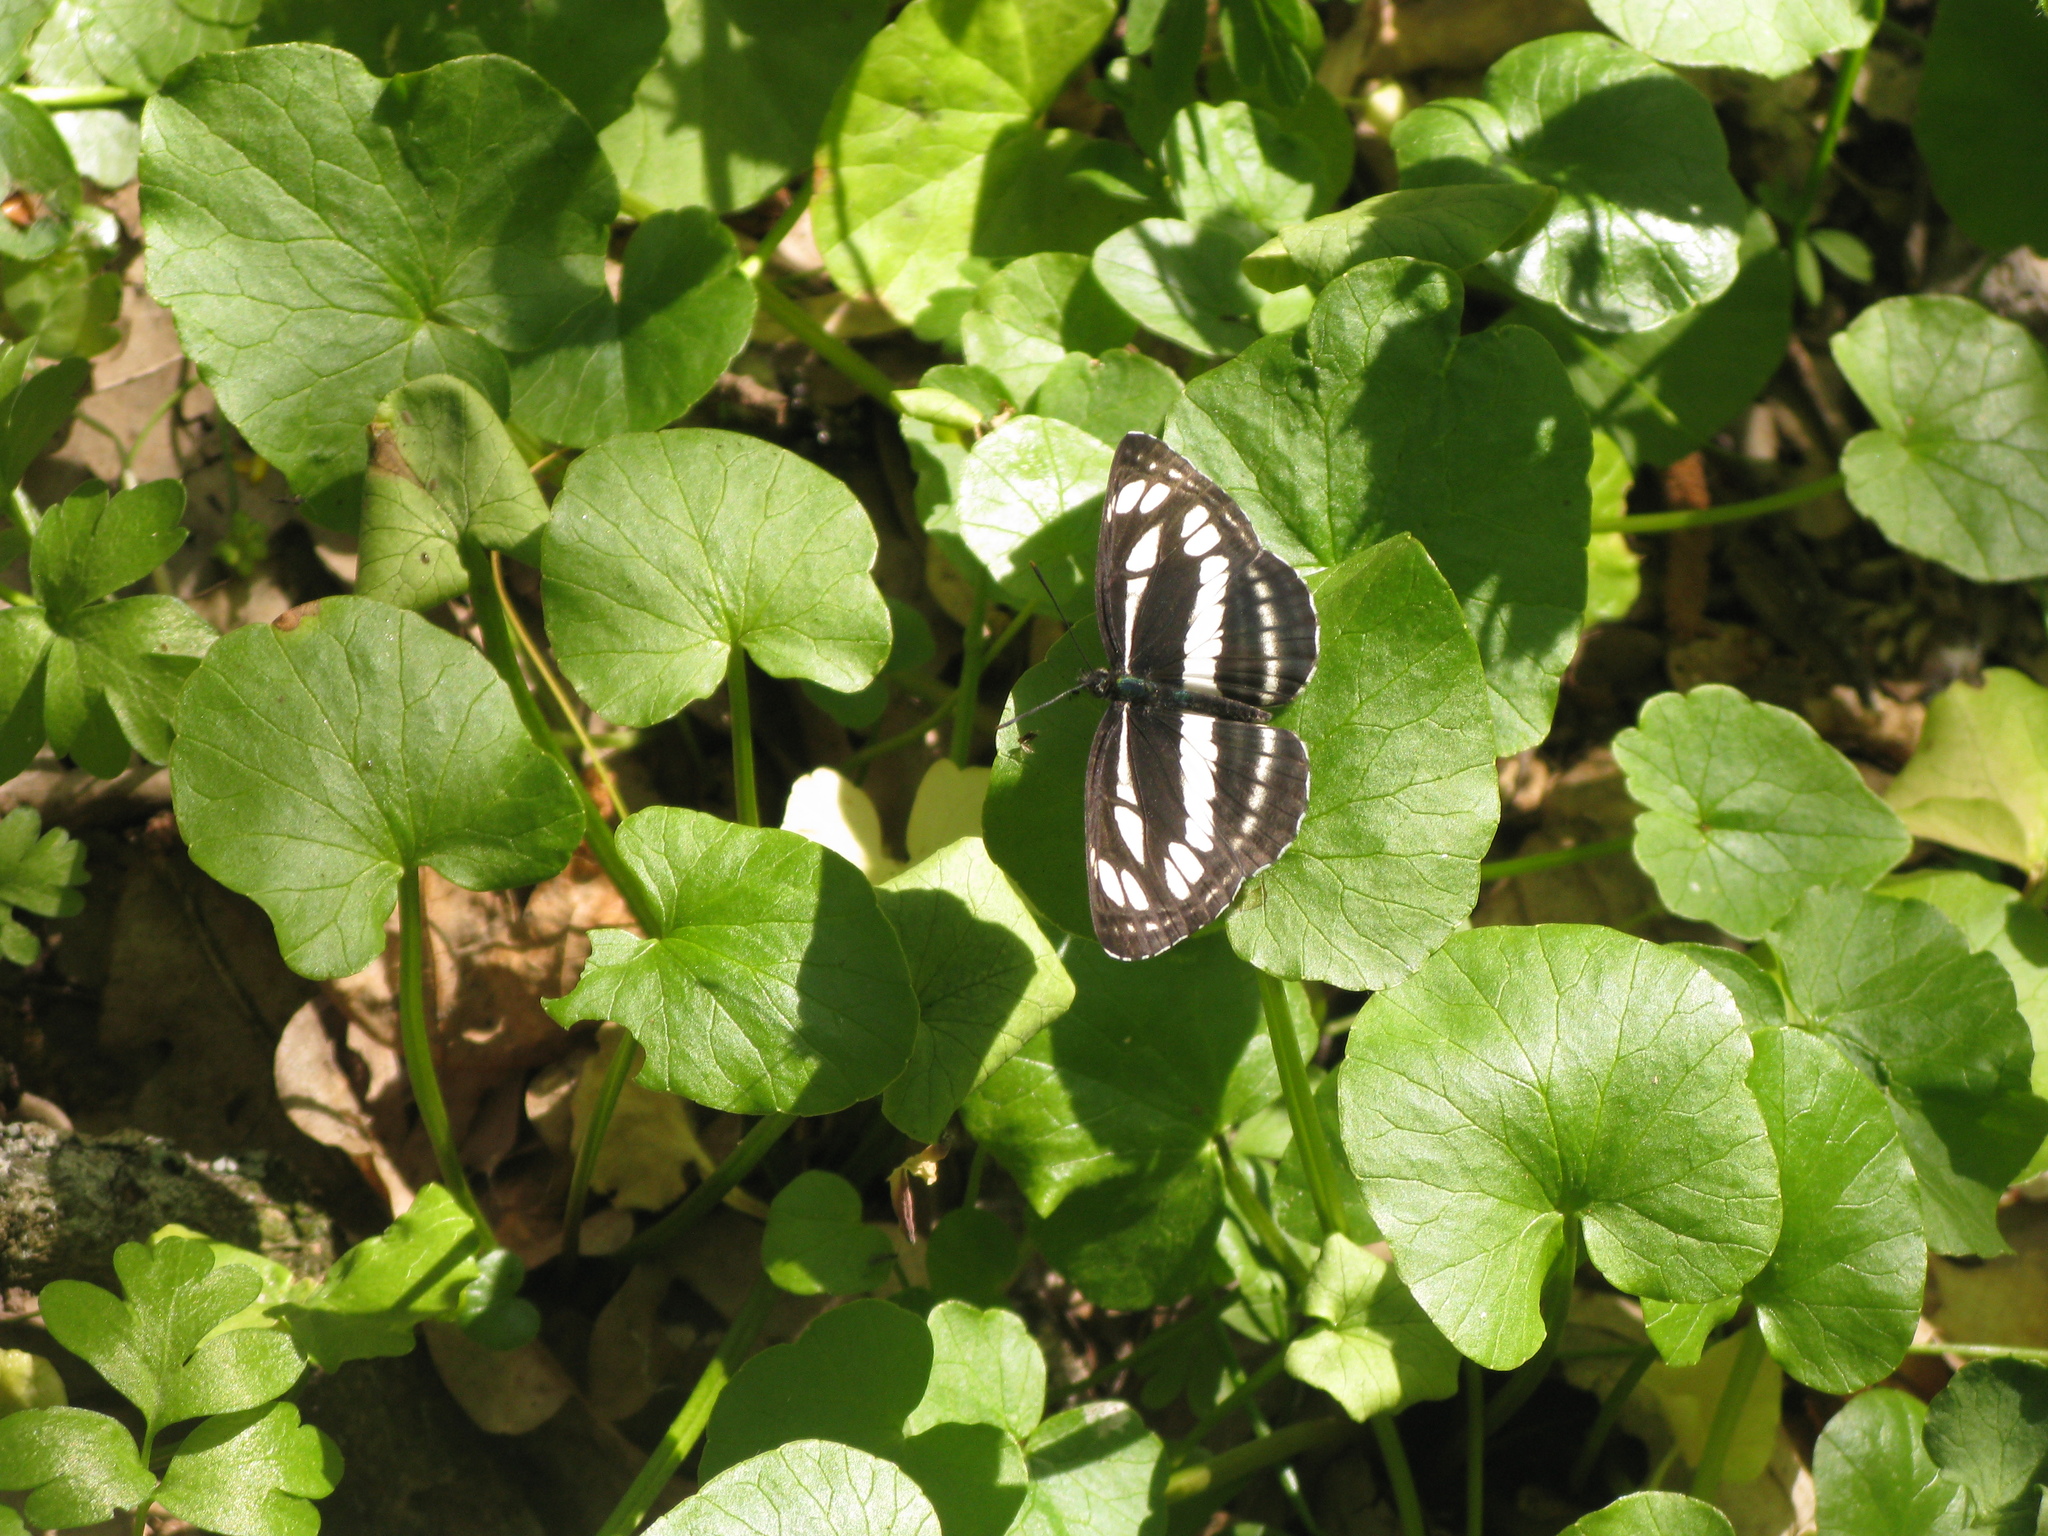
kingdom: Animalia
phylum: Arthropoda
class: Insecta
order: Lepidoptera
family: Nymphalidae
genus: Neptis
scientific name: Neptis sappho
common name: Common glider
